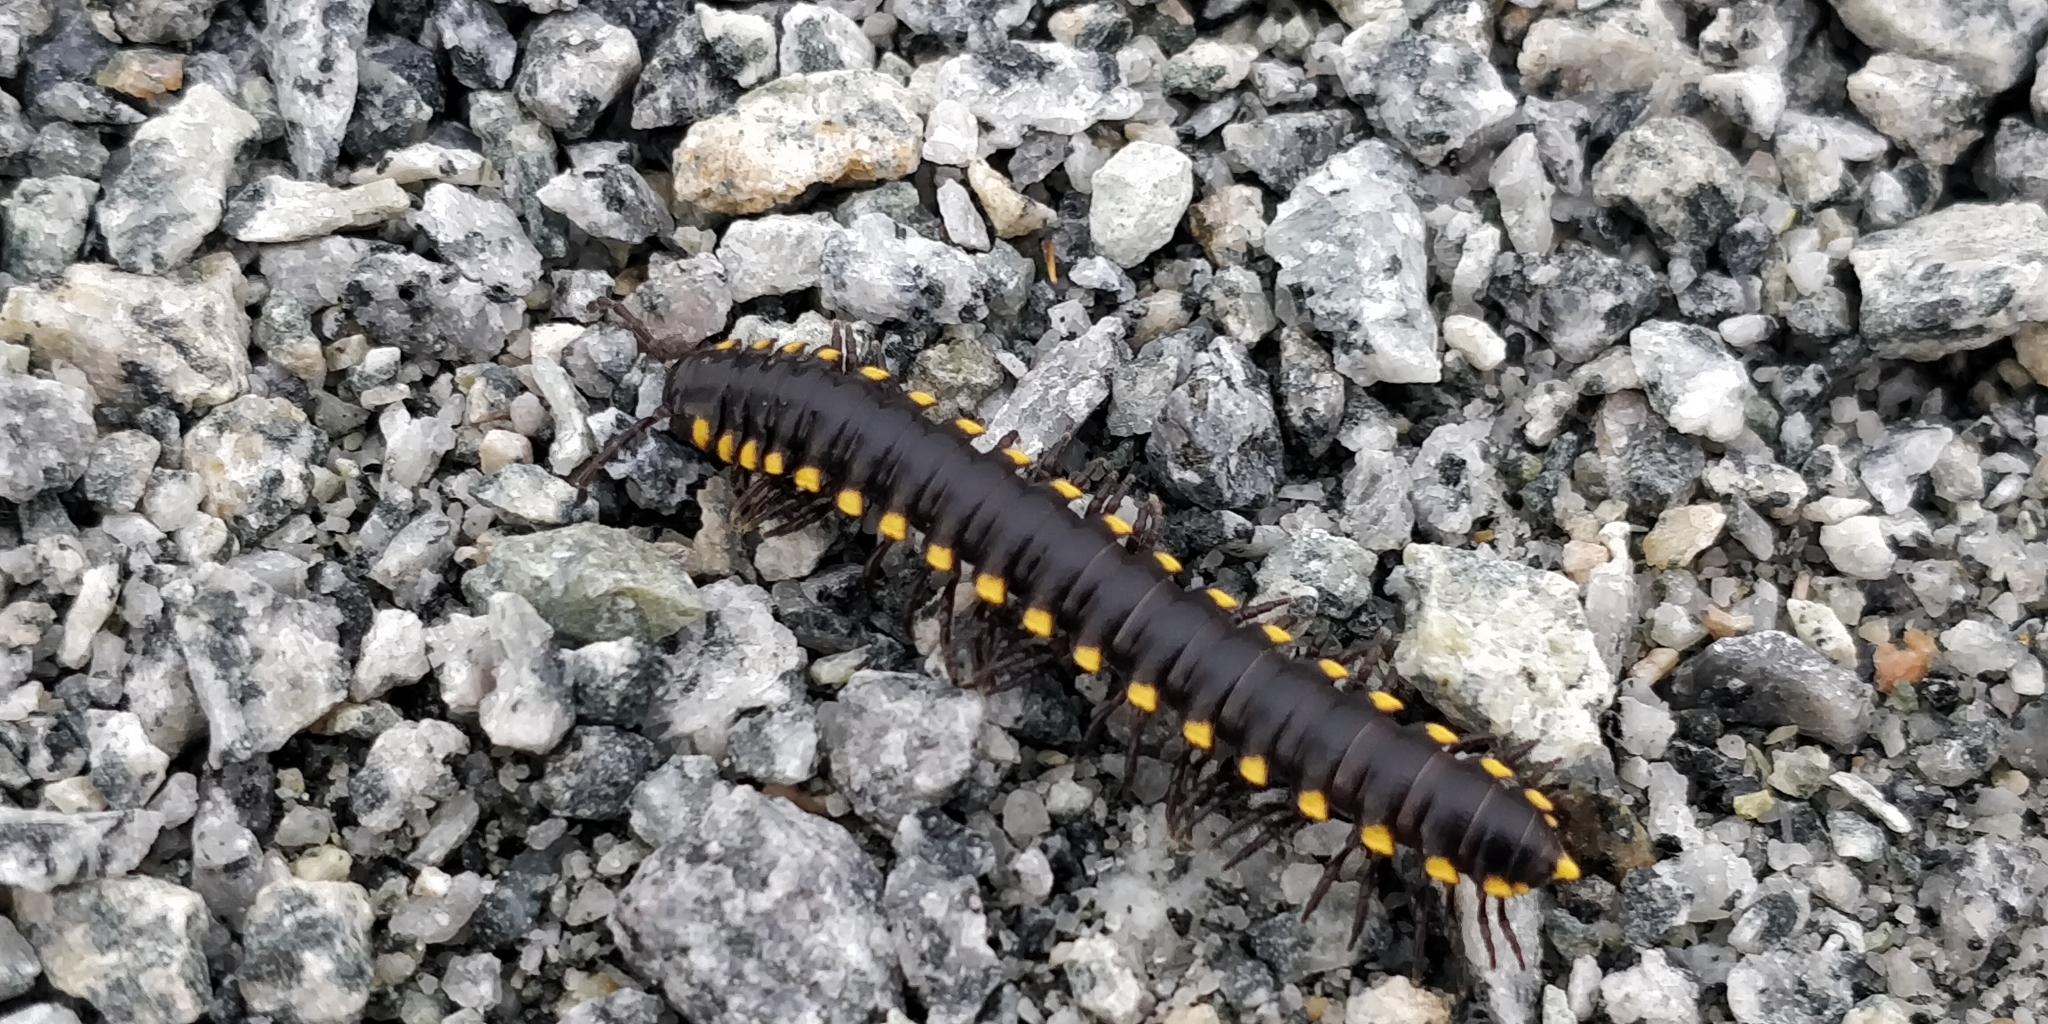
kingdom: Animalia
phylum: Arthropoda
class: Diplopoda
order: Polydesmida
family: Xystodesmidae
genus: Harpaphe
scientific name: Harpaphe haydeniana
